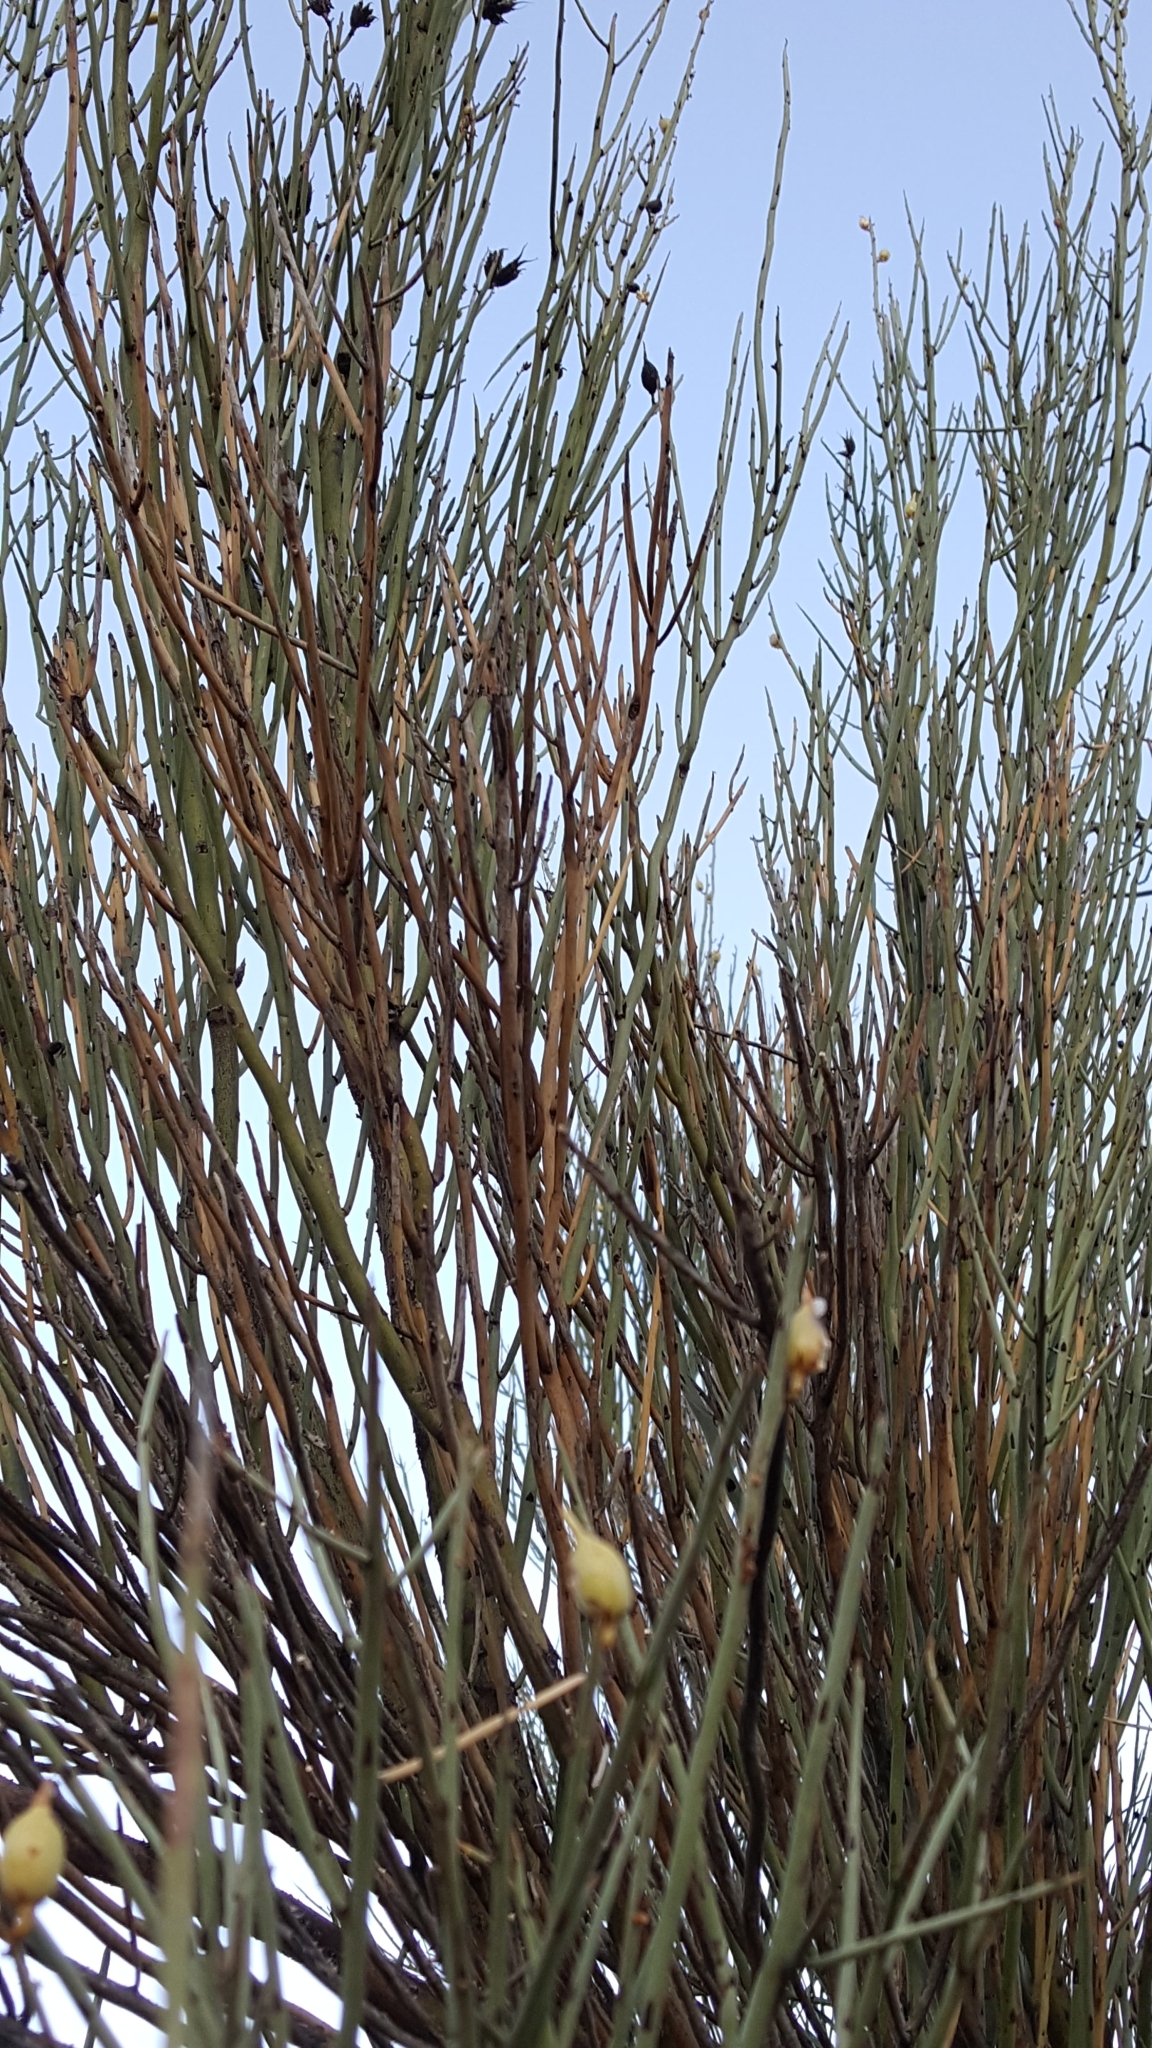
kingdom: Plantae
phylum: Tracheophyta
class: Magnoliopsida
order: Celastrales
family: Celastraceae
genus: Canotia
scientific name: Canotia holacantha
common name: Crucifixion thorns
